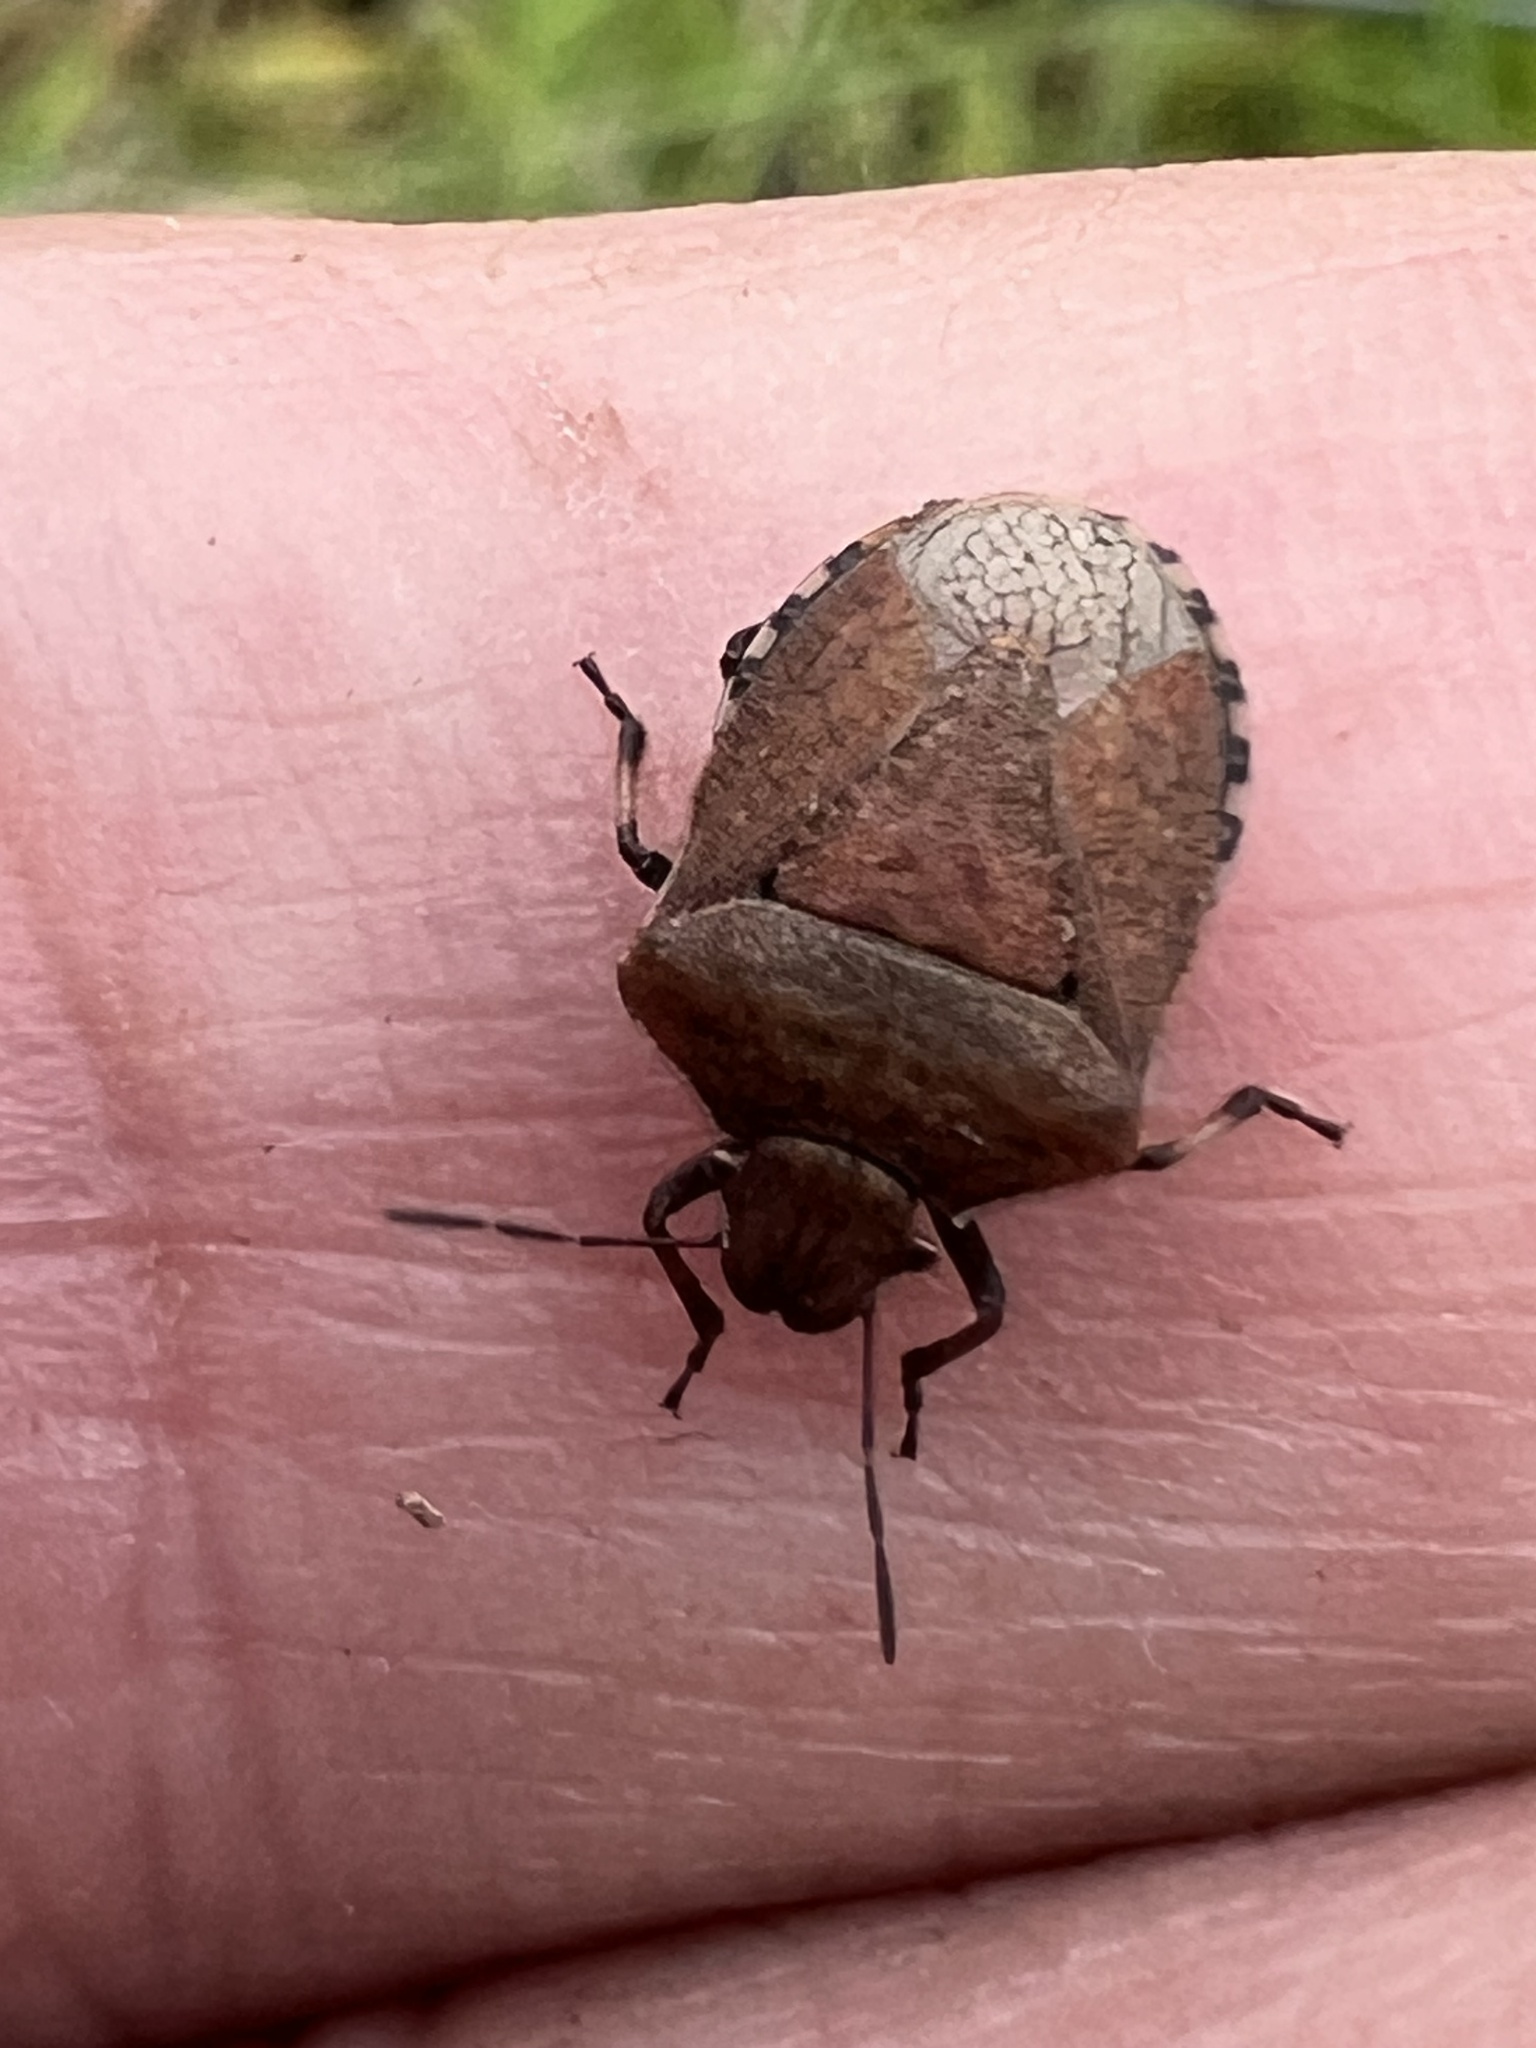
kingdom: Animalia
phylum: Arthropoda
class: Insecta
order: Hemiptera
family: Pentatomidae
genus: Dictyotus
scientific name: Dictyotus caenosus
